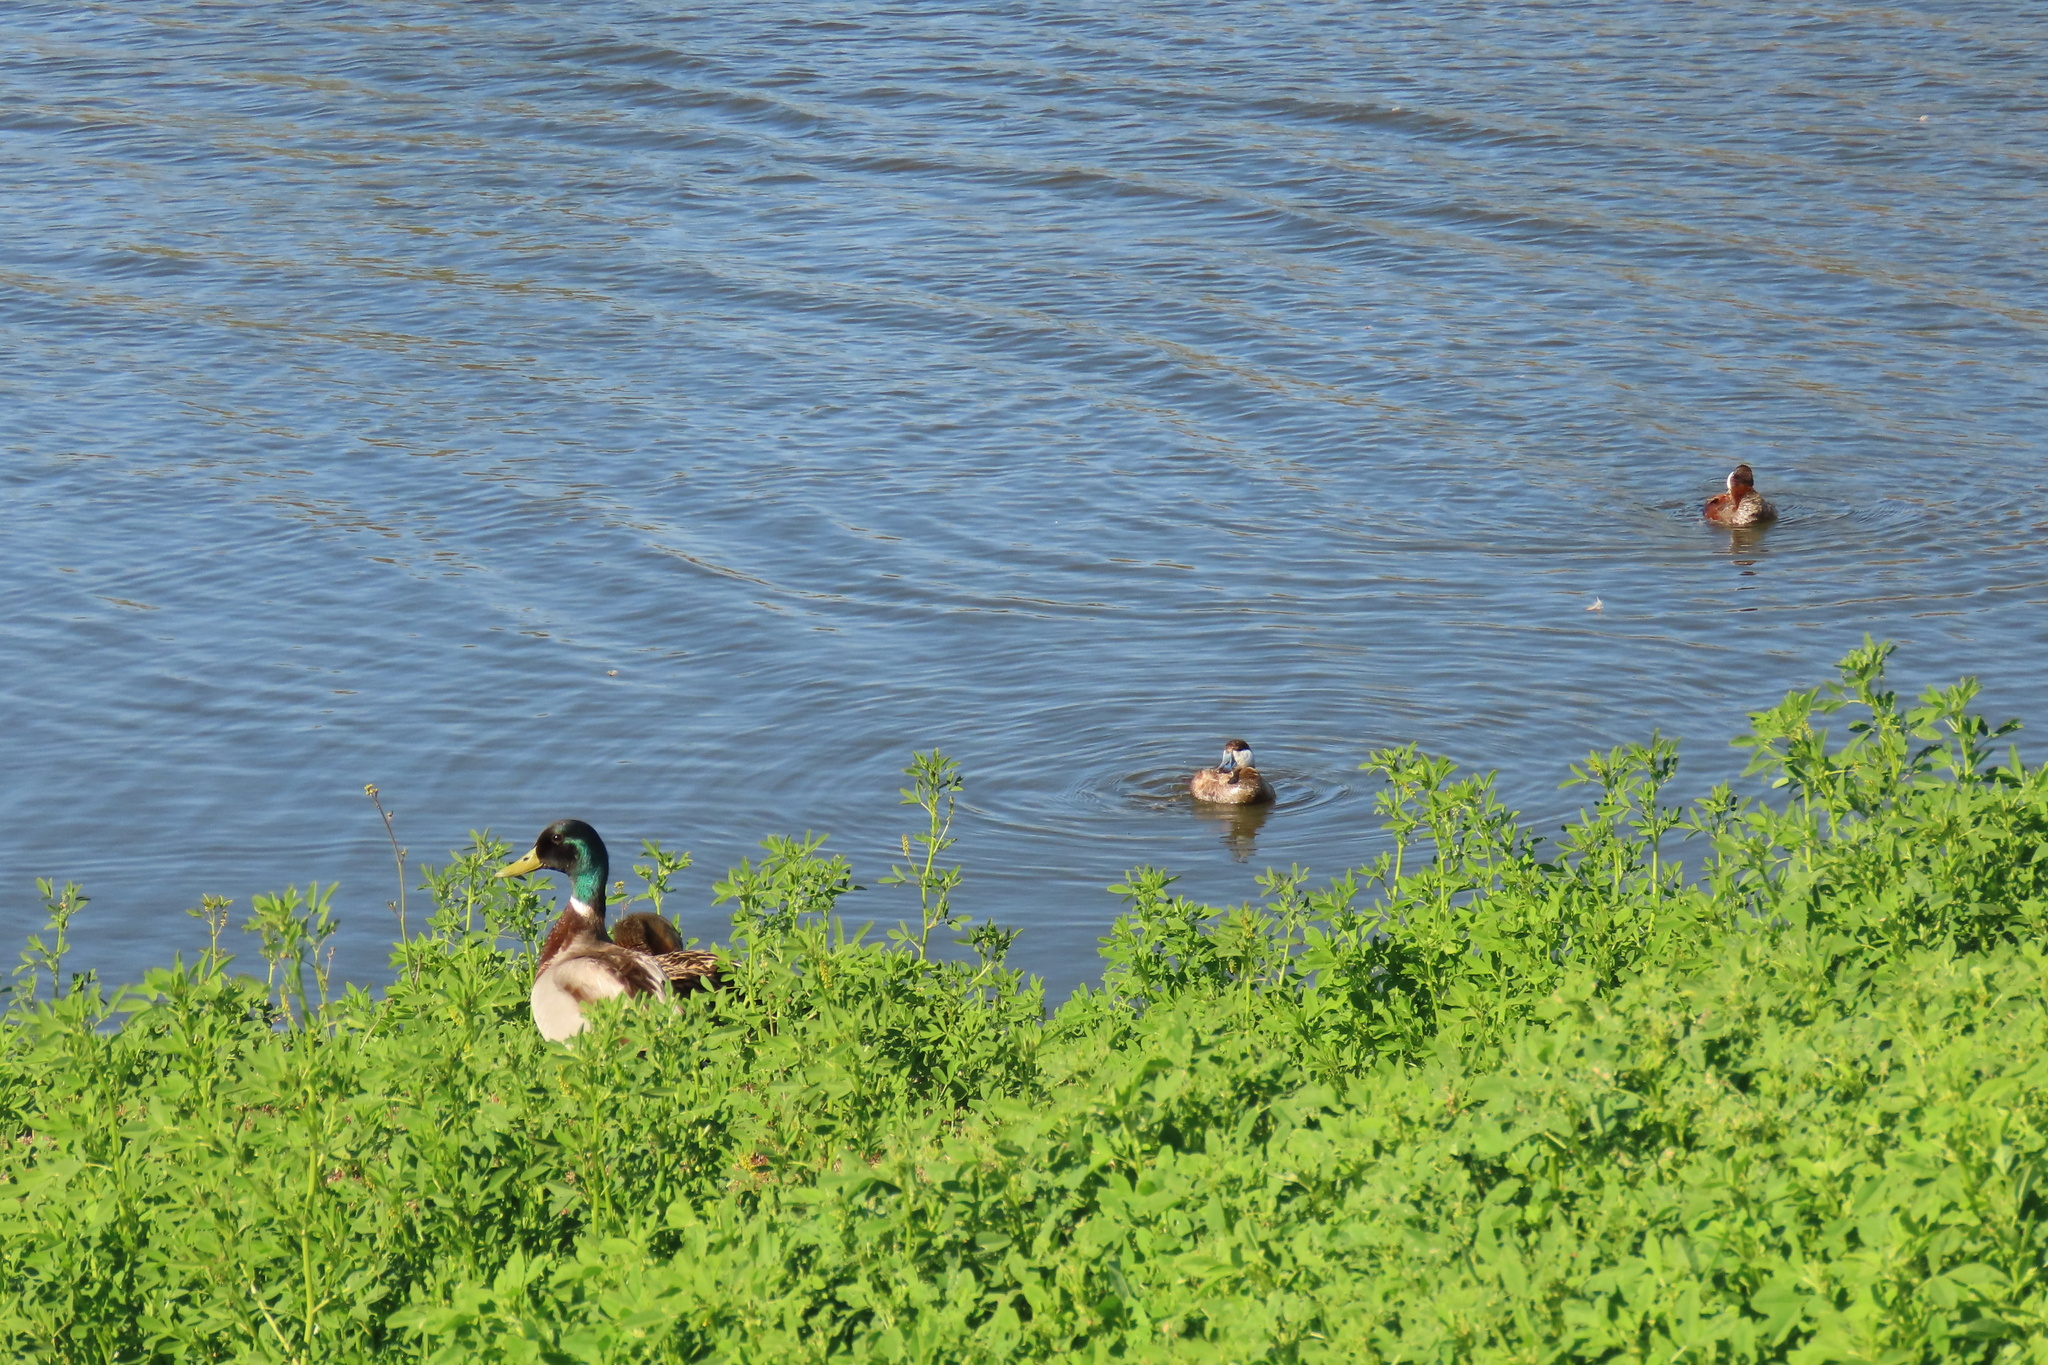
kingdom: Animalia
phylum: Chordata
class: Aves
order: Anseriformes
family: Anatidae
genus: Anas
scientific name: Anas platyrhynchos
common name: Mallard
